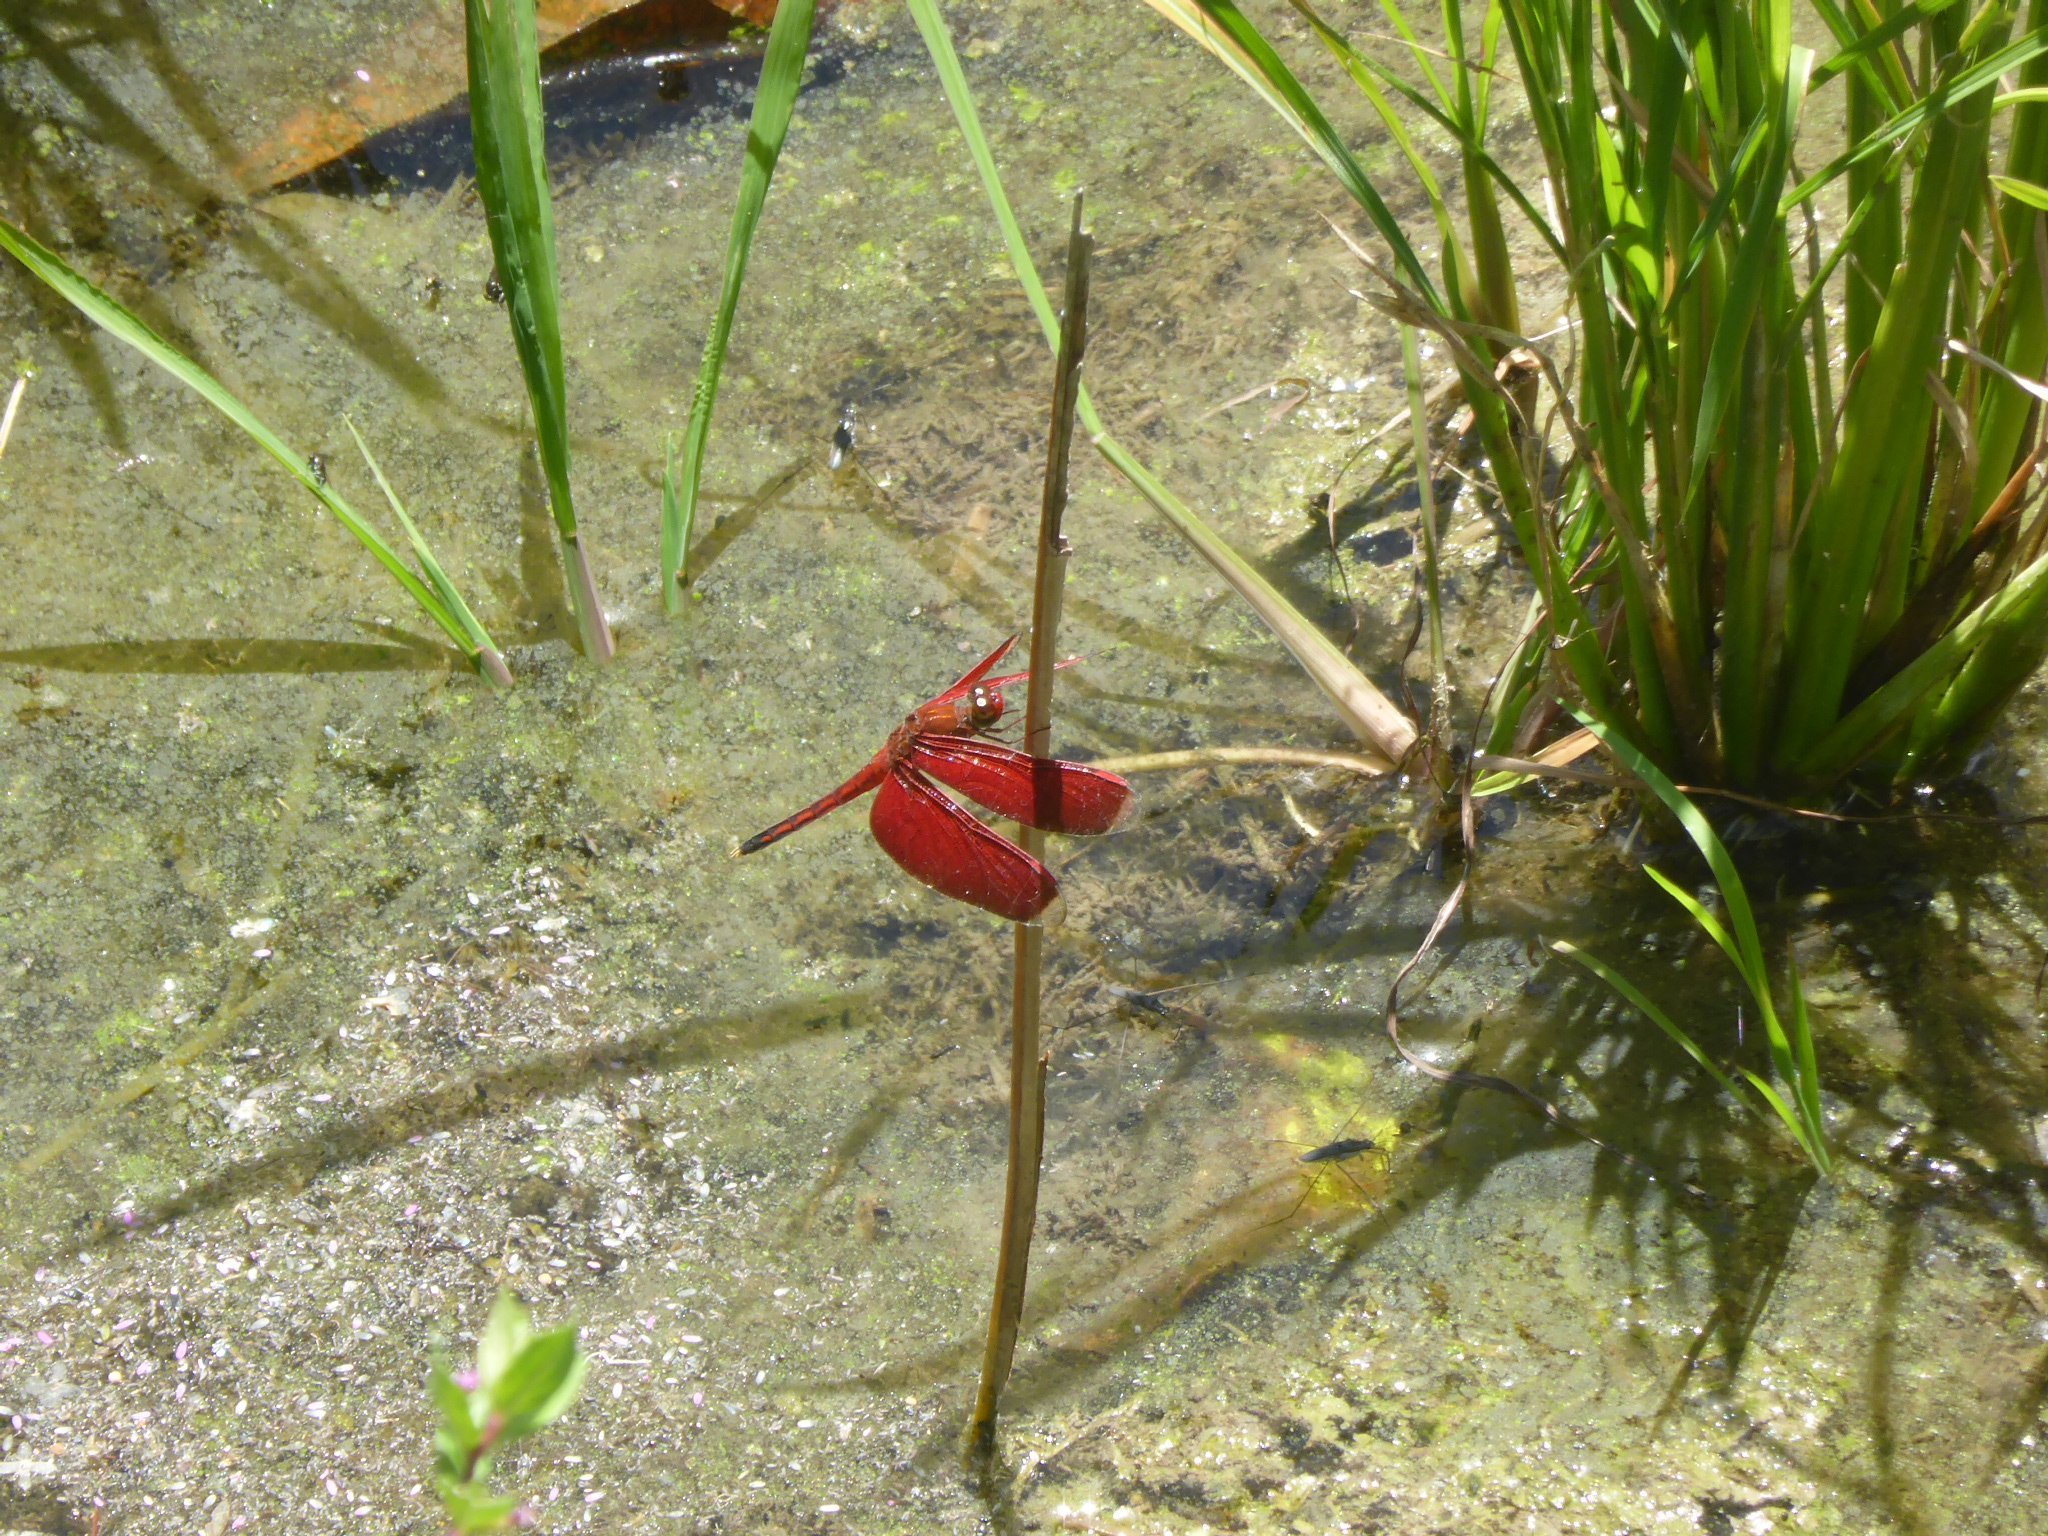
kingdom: Animalia
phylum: Arthropoda
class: Insecta
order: Odonata
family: Libellulidae
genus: Neurothemis
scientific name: Neurothemis manadensis
